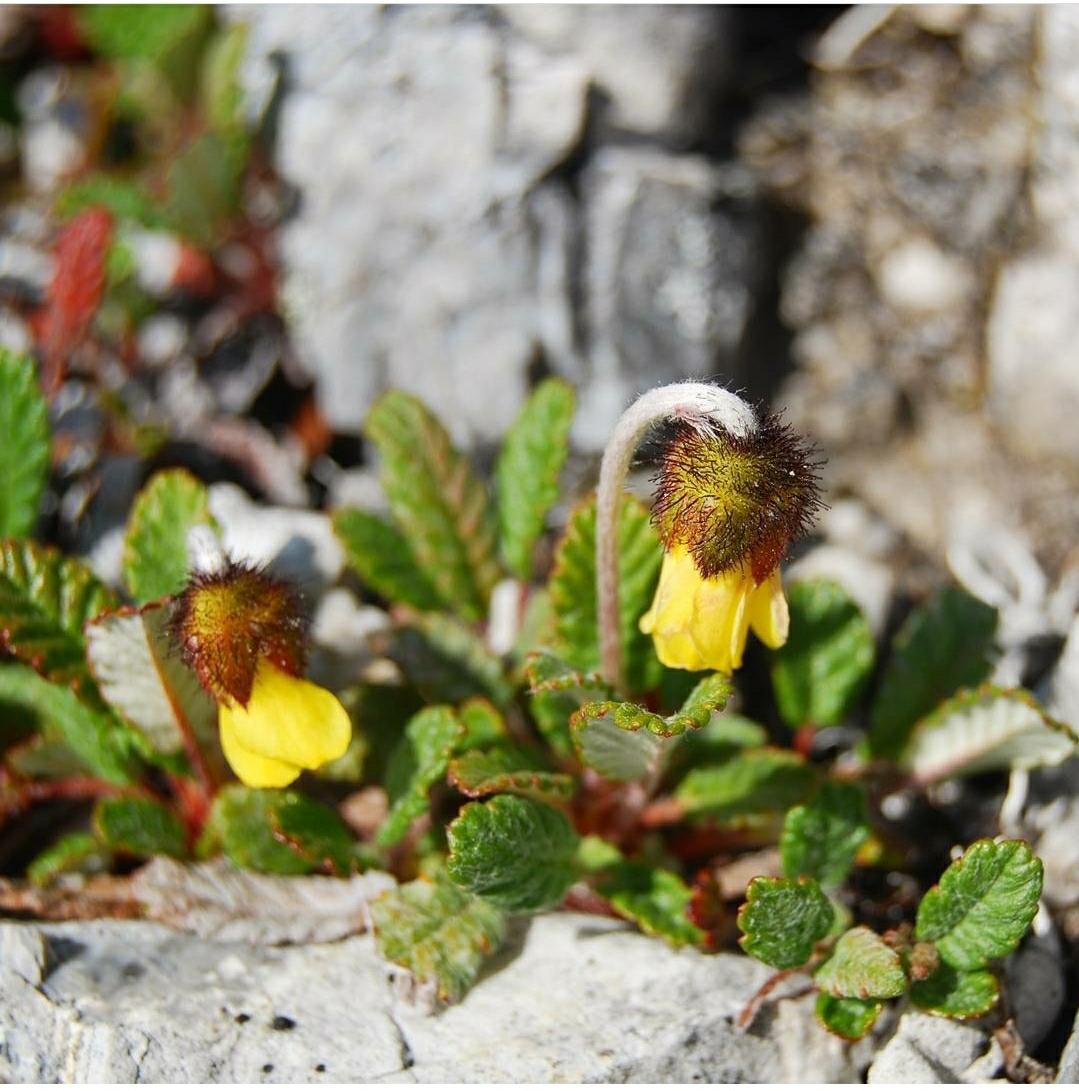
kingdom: Plantae
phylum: Tracheophyta
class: Magnoliopsida
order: Rosales
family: Rosaceae
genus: Dryas
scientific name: Dryas drummondii
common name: Drummond's dryad
